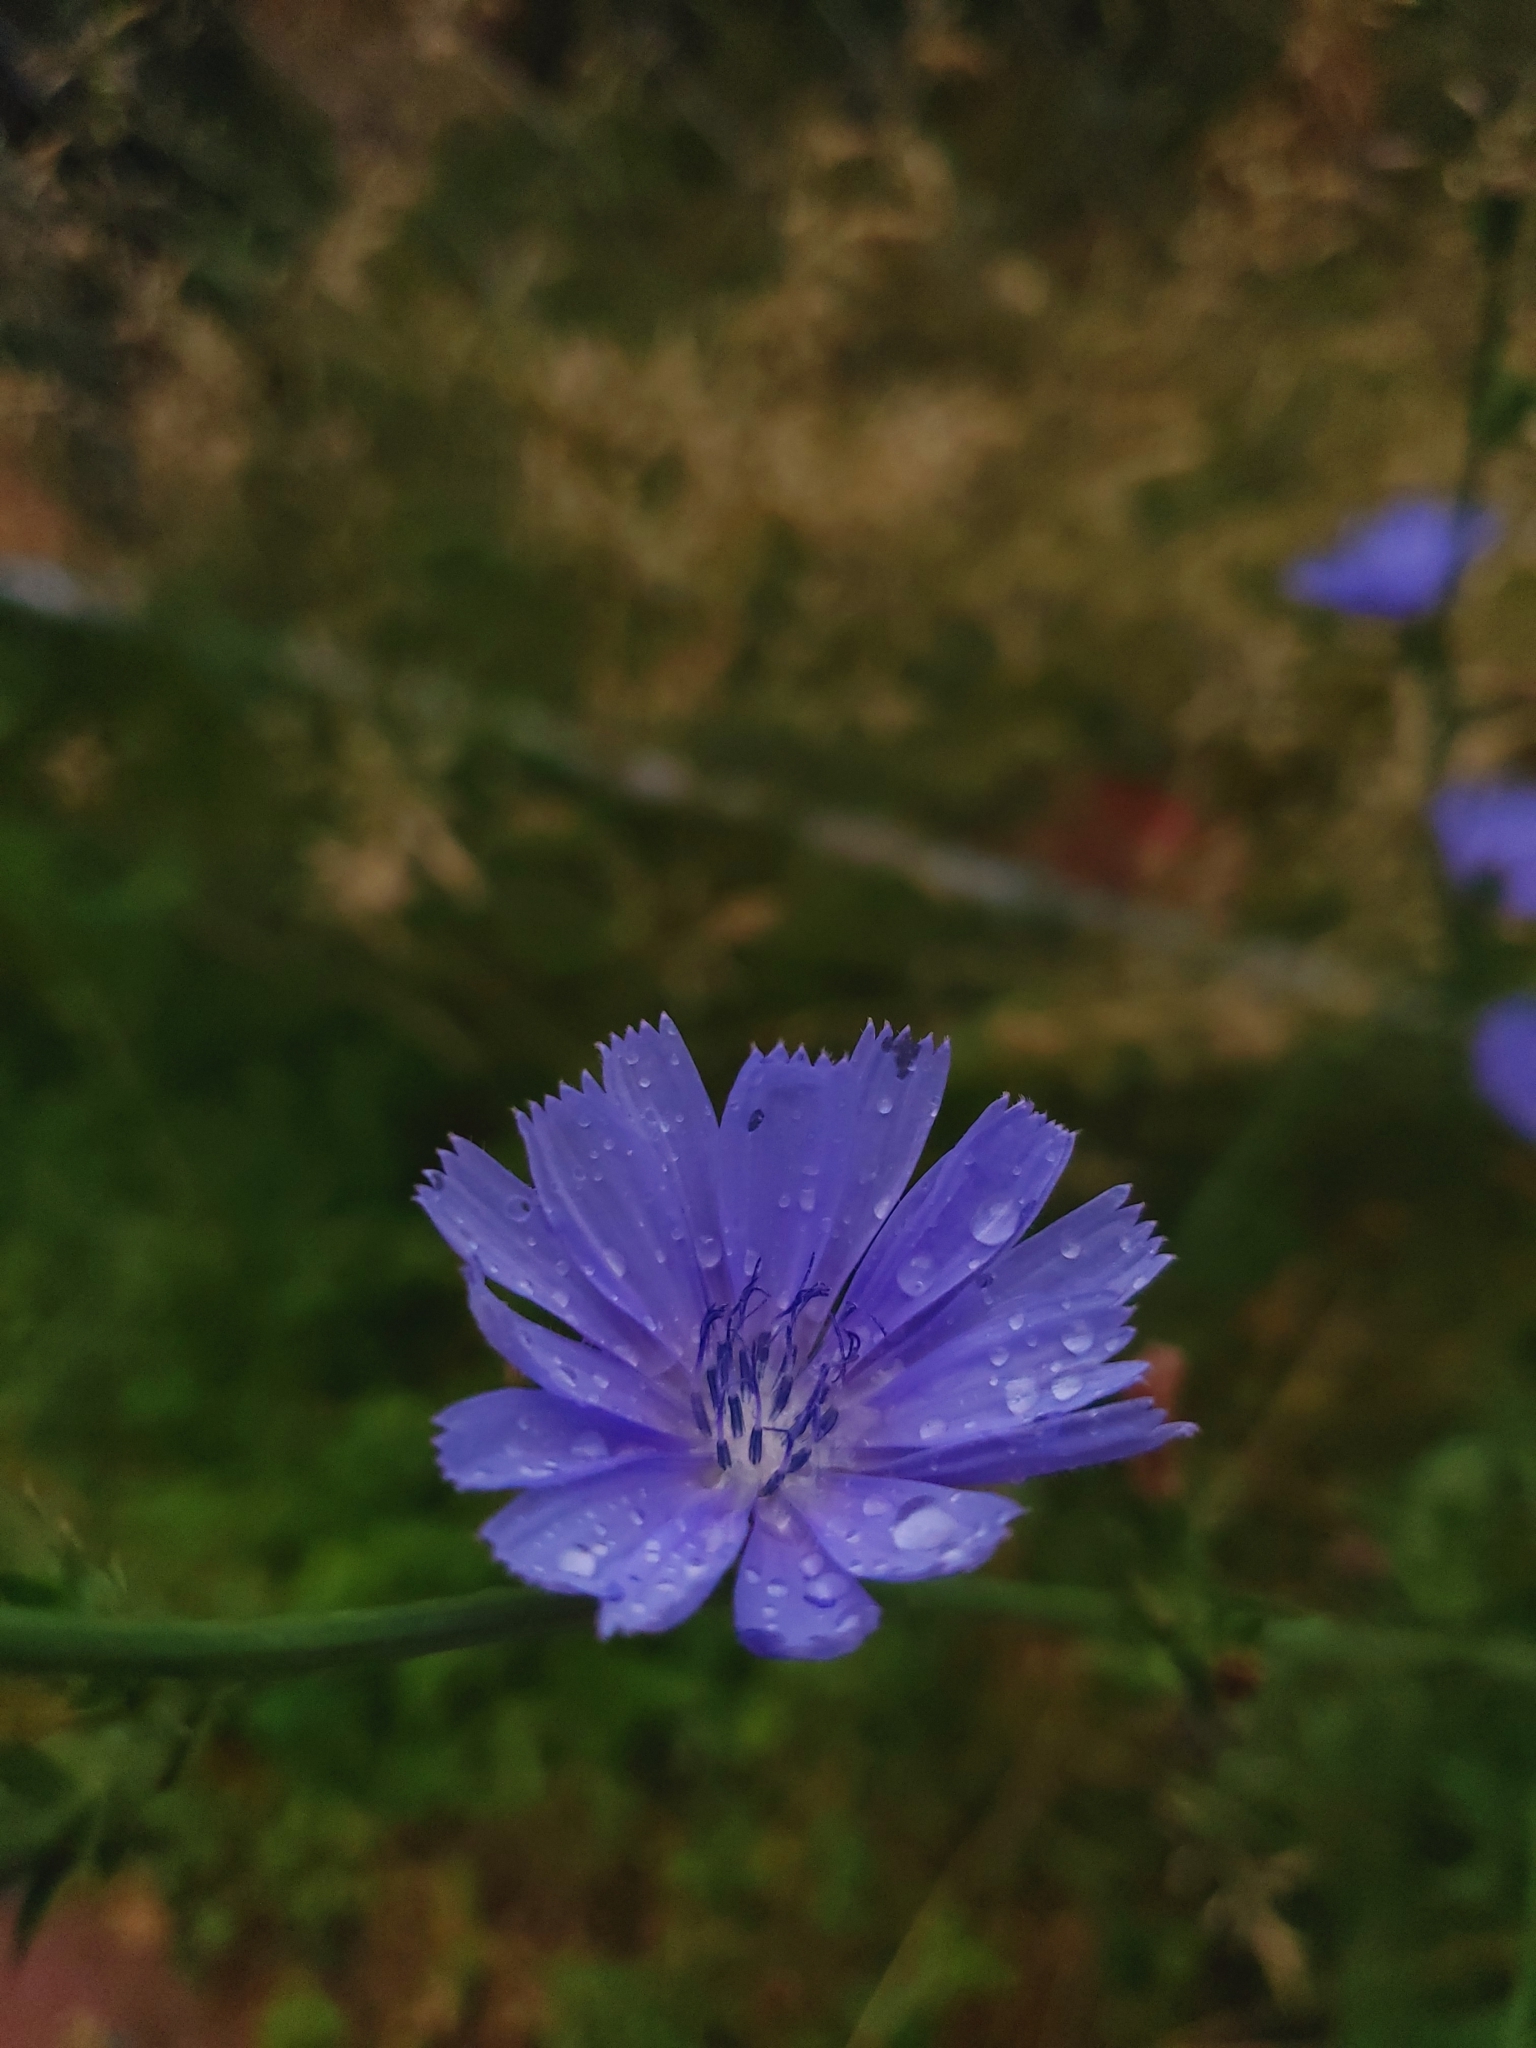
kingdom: Plantae
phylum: Tracheophyta
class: Magnoliopsida
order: Asterales
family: Asteraceae
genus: Cichorium
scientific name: Cichorium intybus
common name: Chicory
